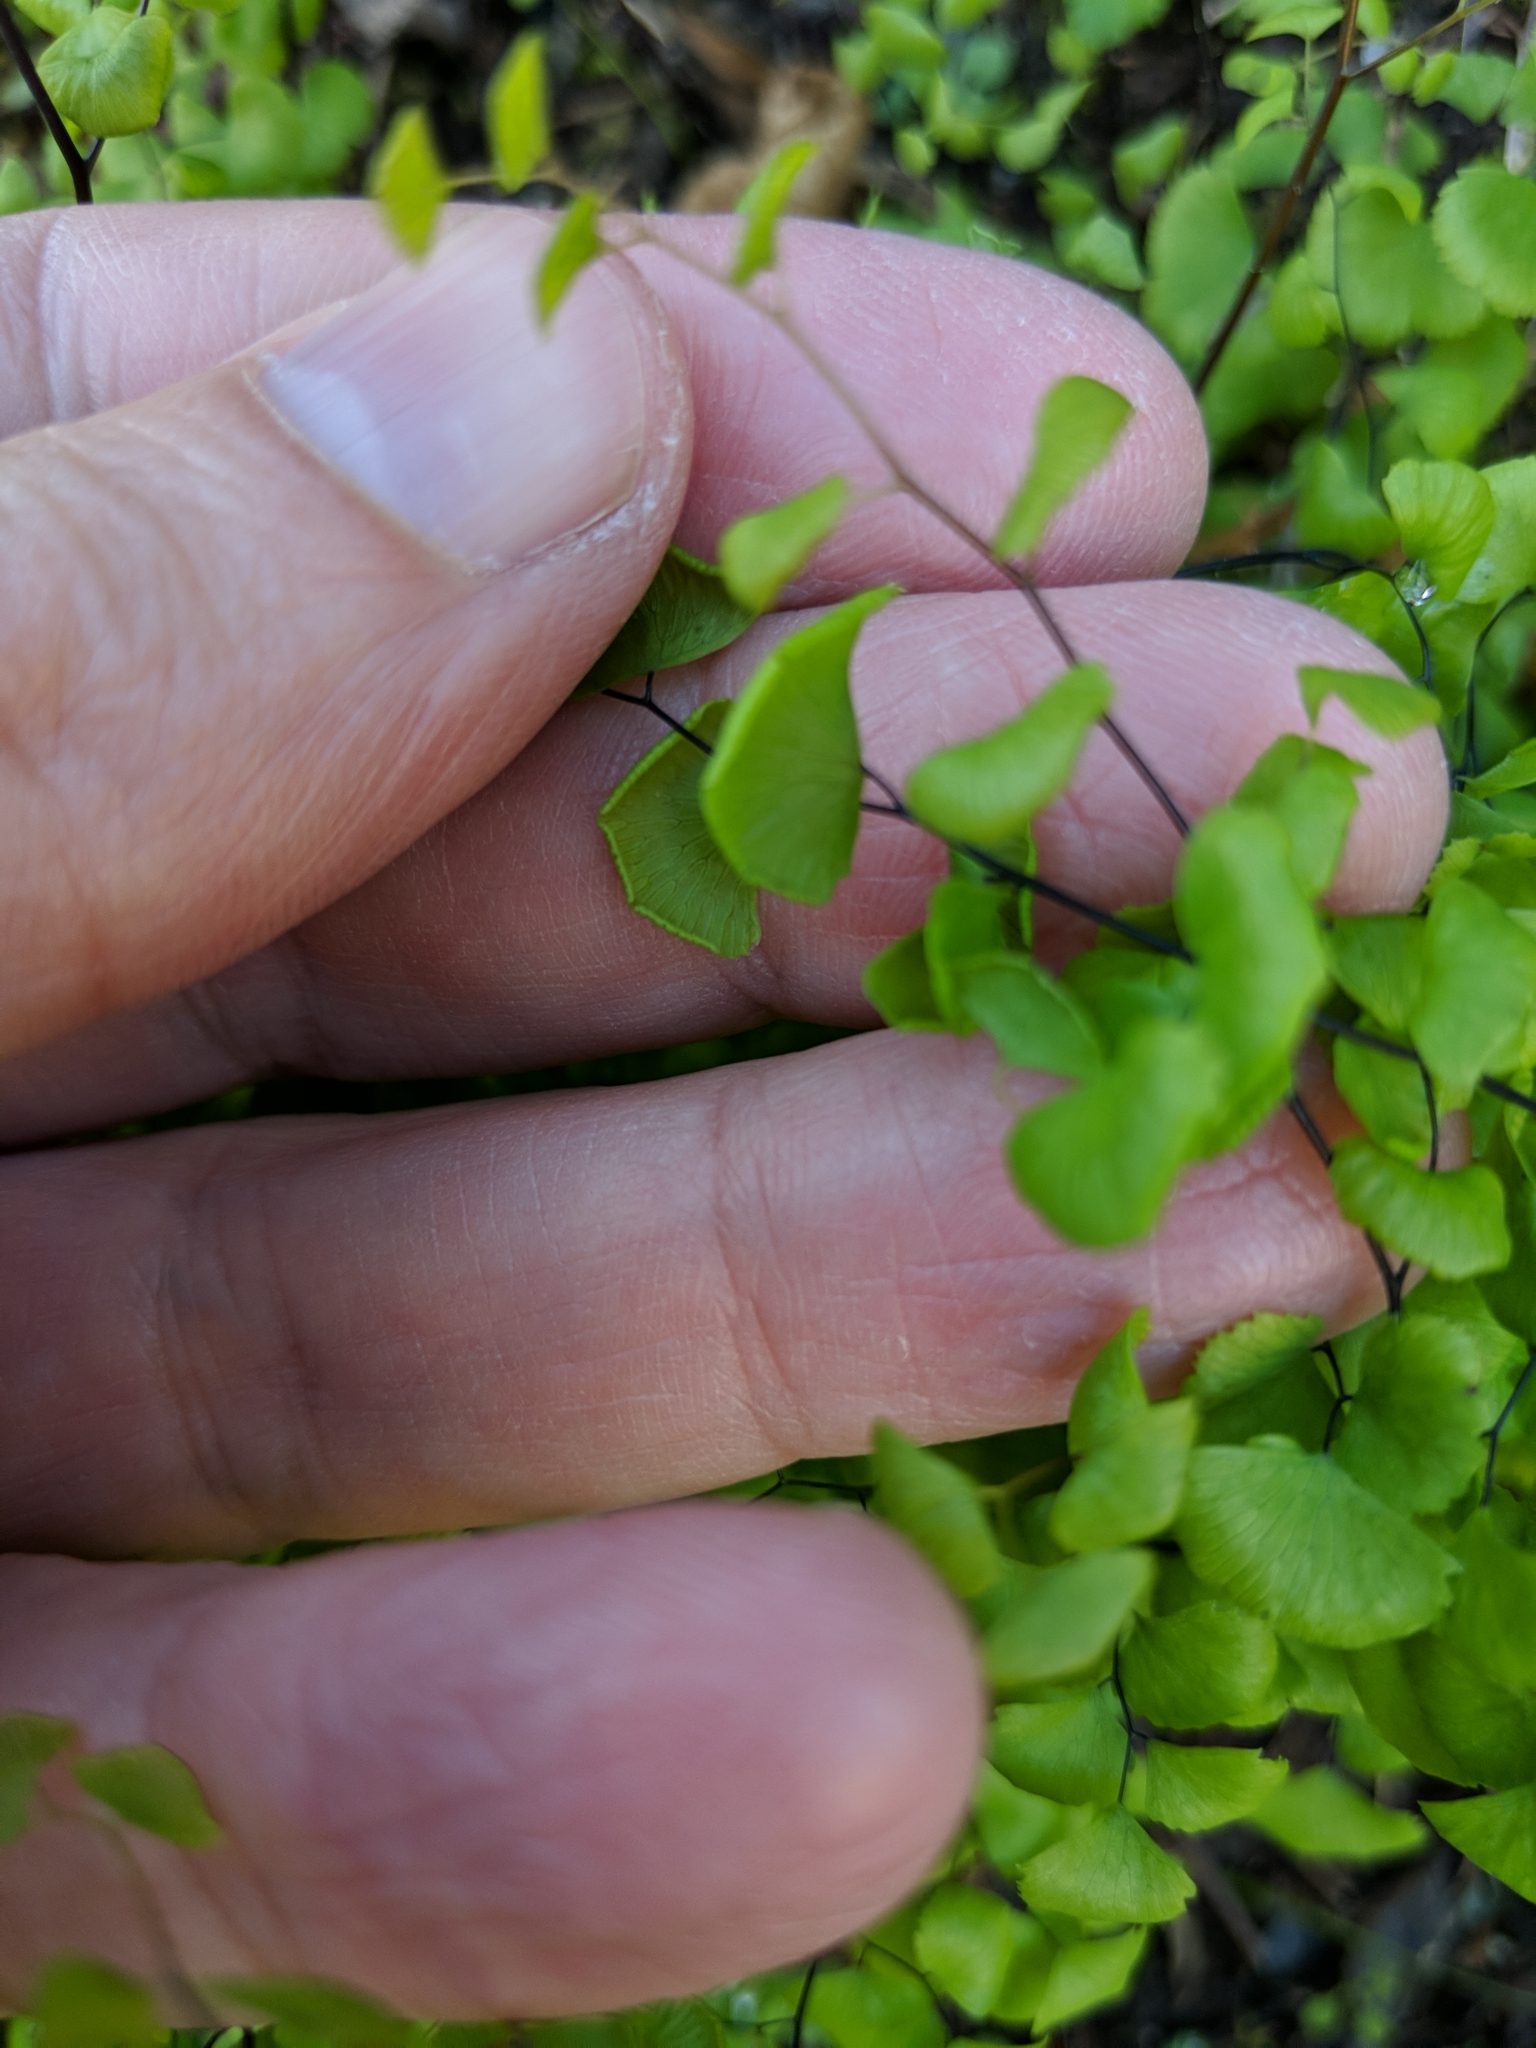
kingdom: Plantae
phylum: Tracheophyta
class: Polypodiopsida
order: Polypodiales
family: Pteridaceae
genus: Adiantum
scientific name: Adiantum jordanii
